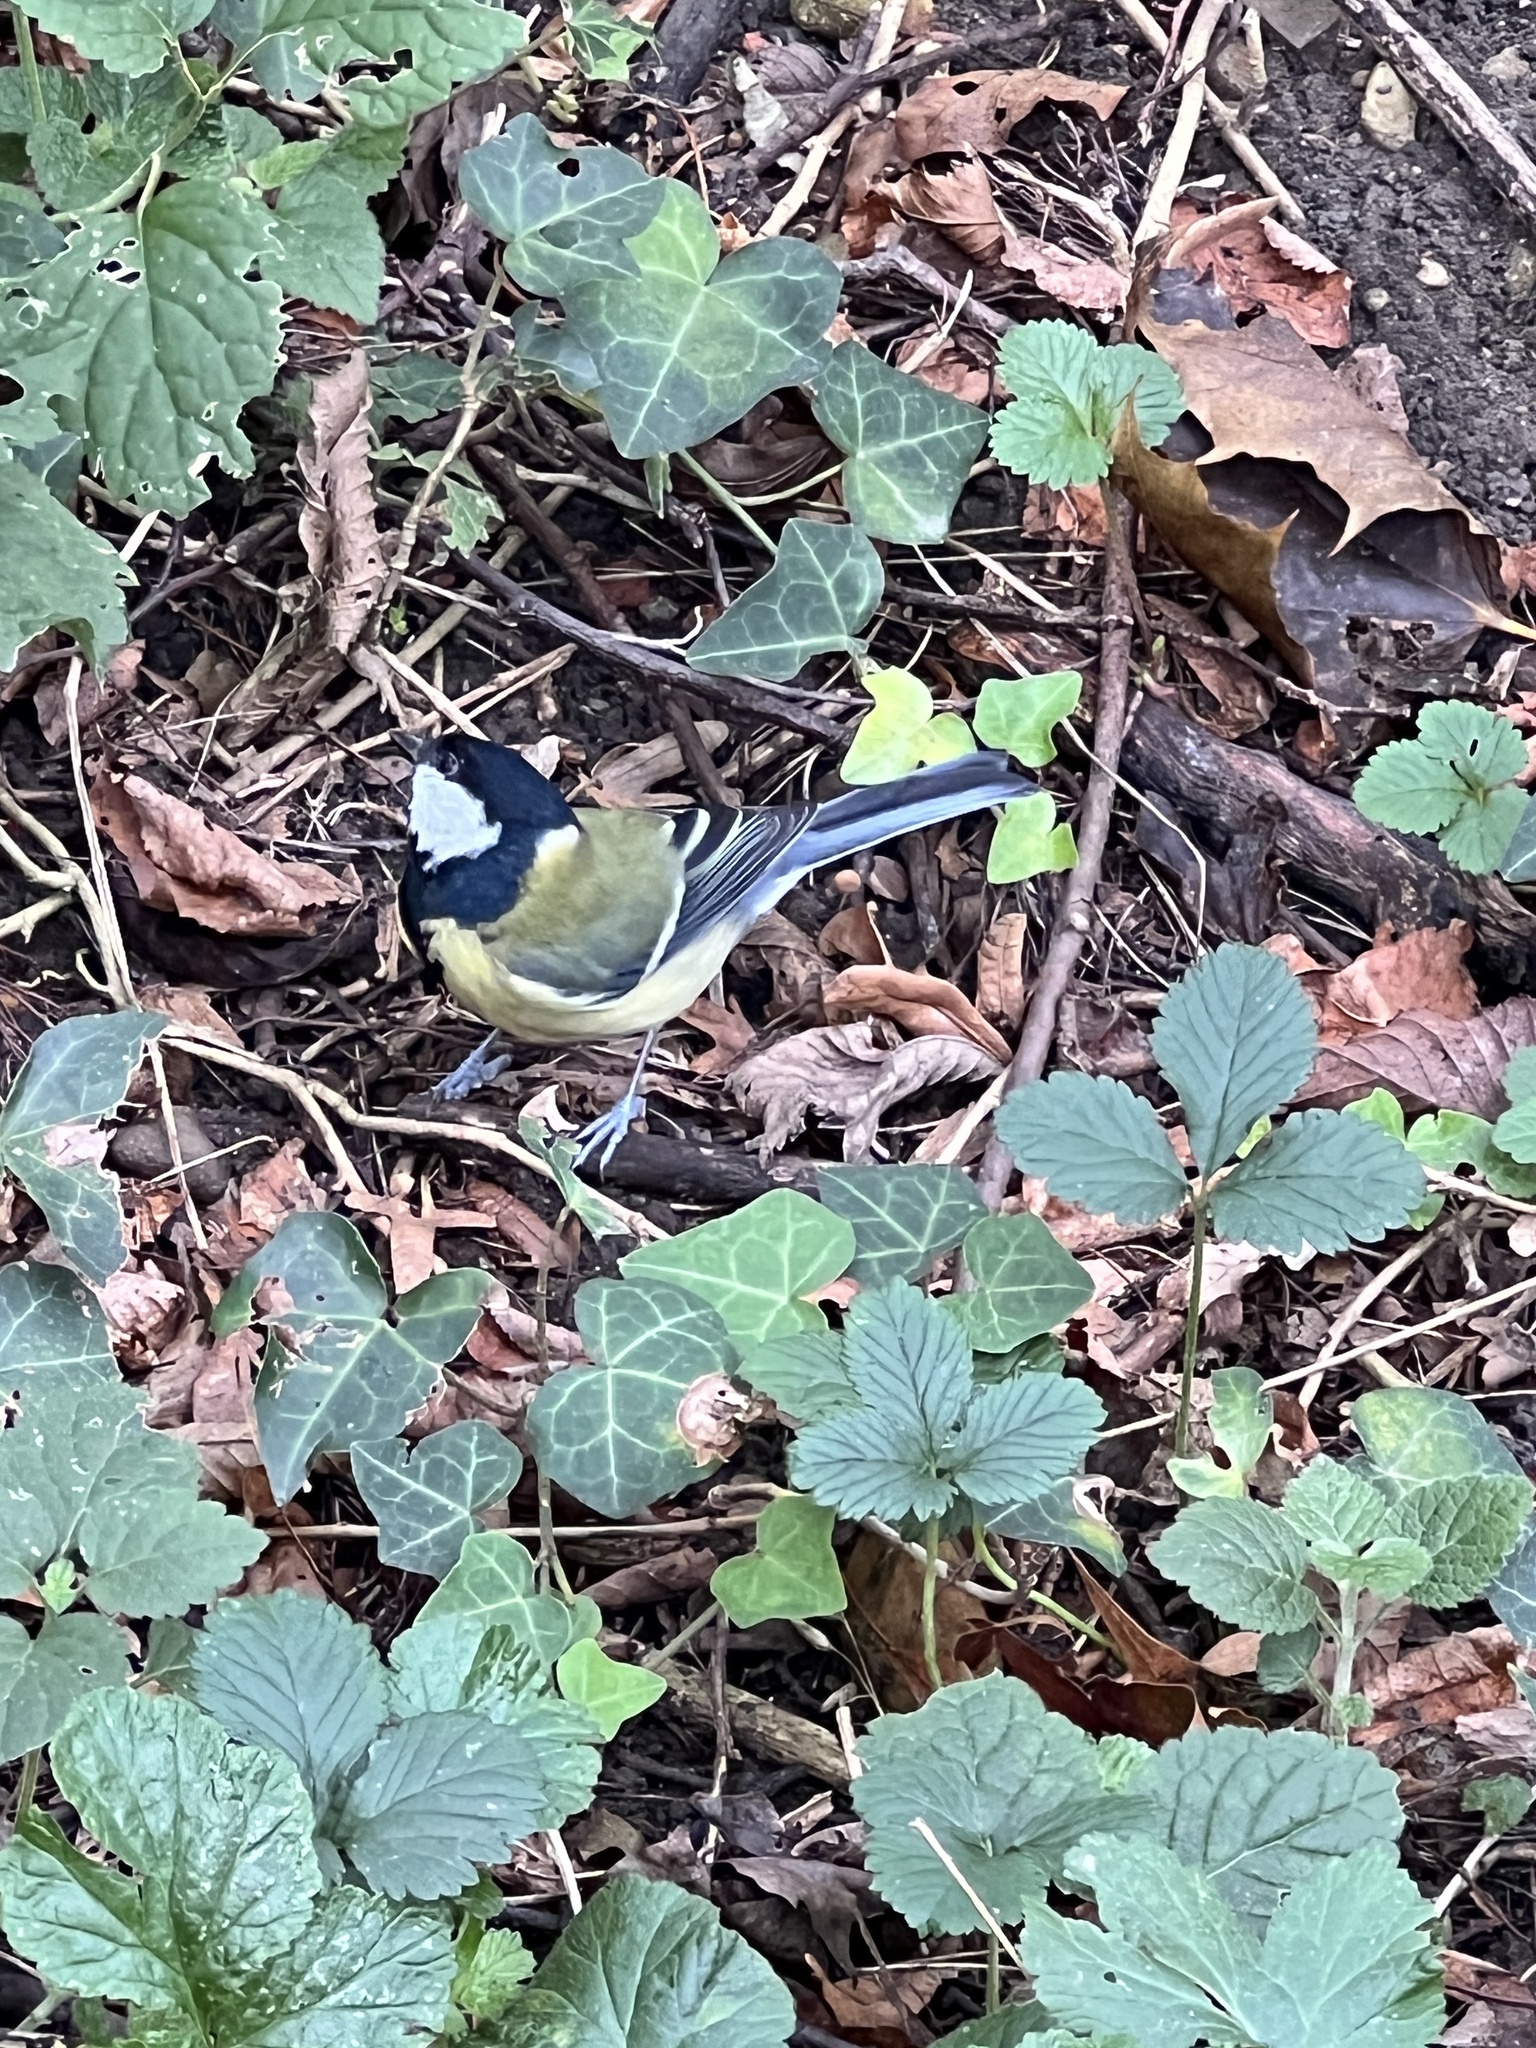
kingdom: Animalia
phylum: Chordata
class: Aves
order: Passeriformes
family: Paridae
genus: Parus
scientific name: Parus major
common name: Great tit
